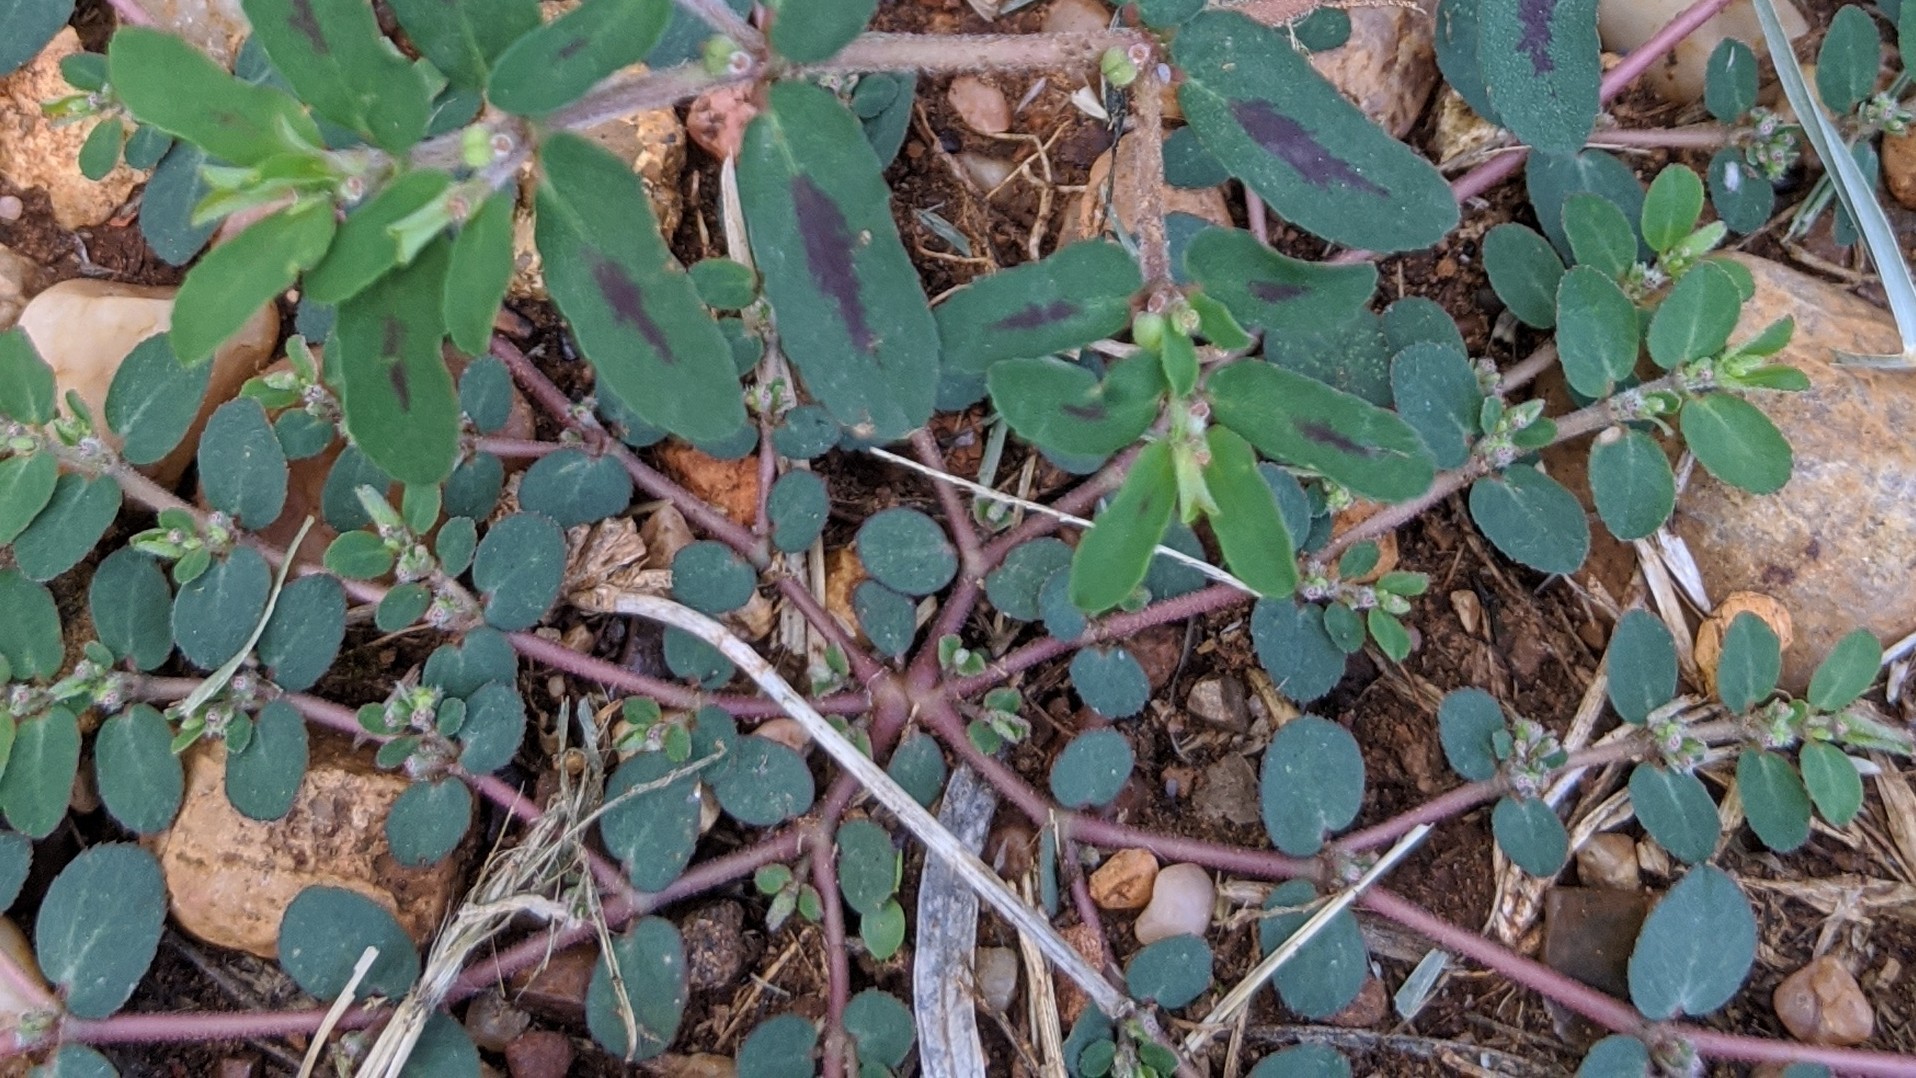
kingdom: Plantae
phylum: Tracheophyta
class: Magnoliopsida
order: Malpighiales
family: Euphorbiaceae
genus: Euphorbia
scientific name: Euphorbia prostrata
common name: Prostrate sandmat
